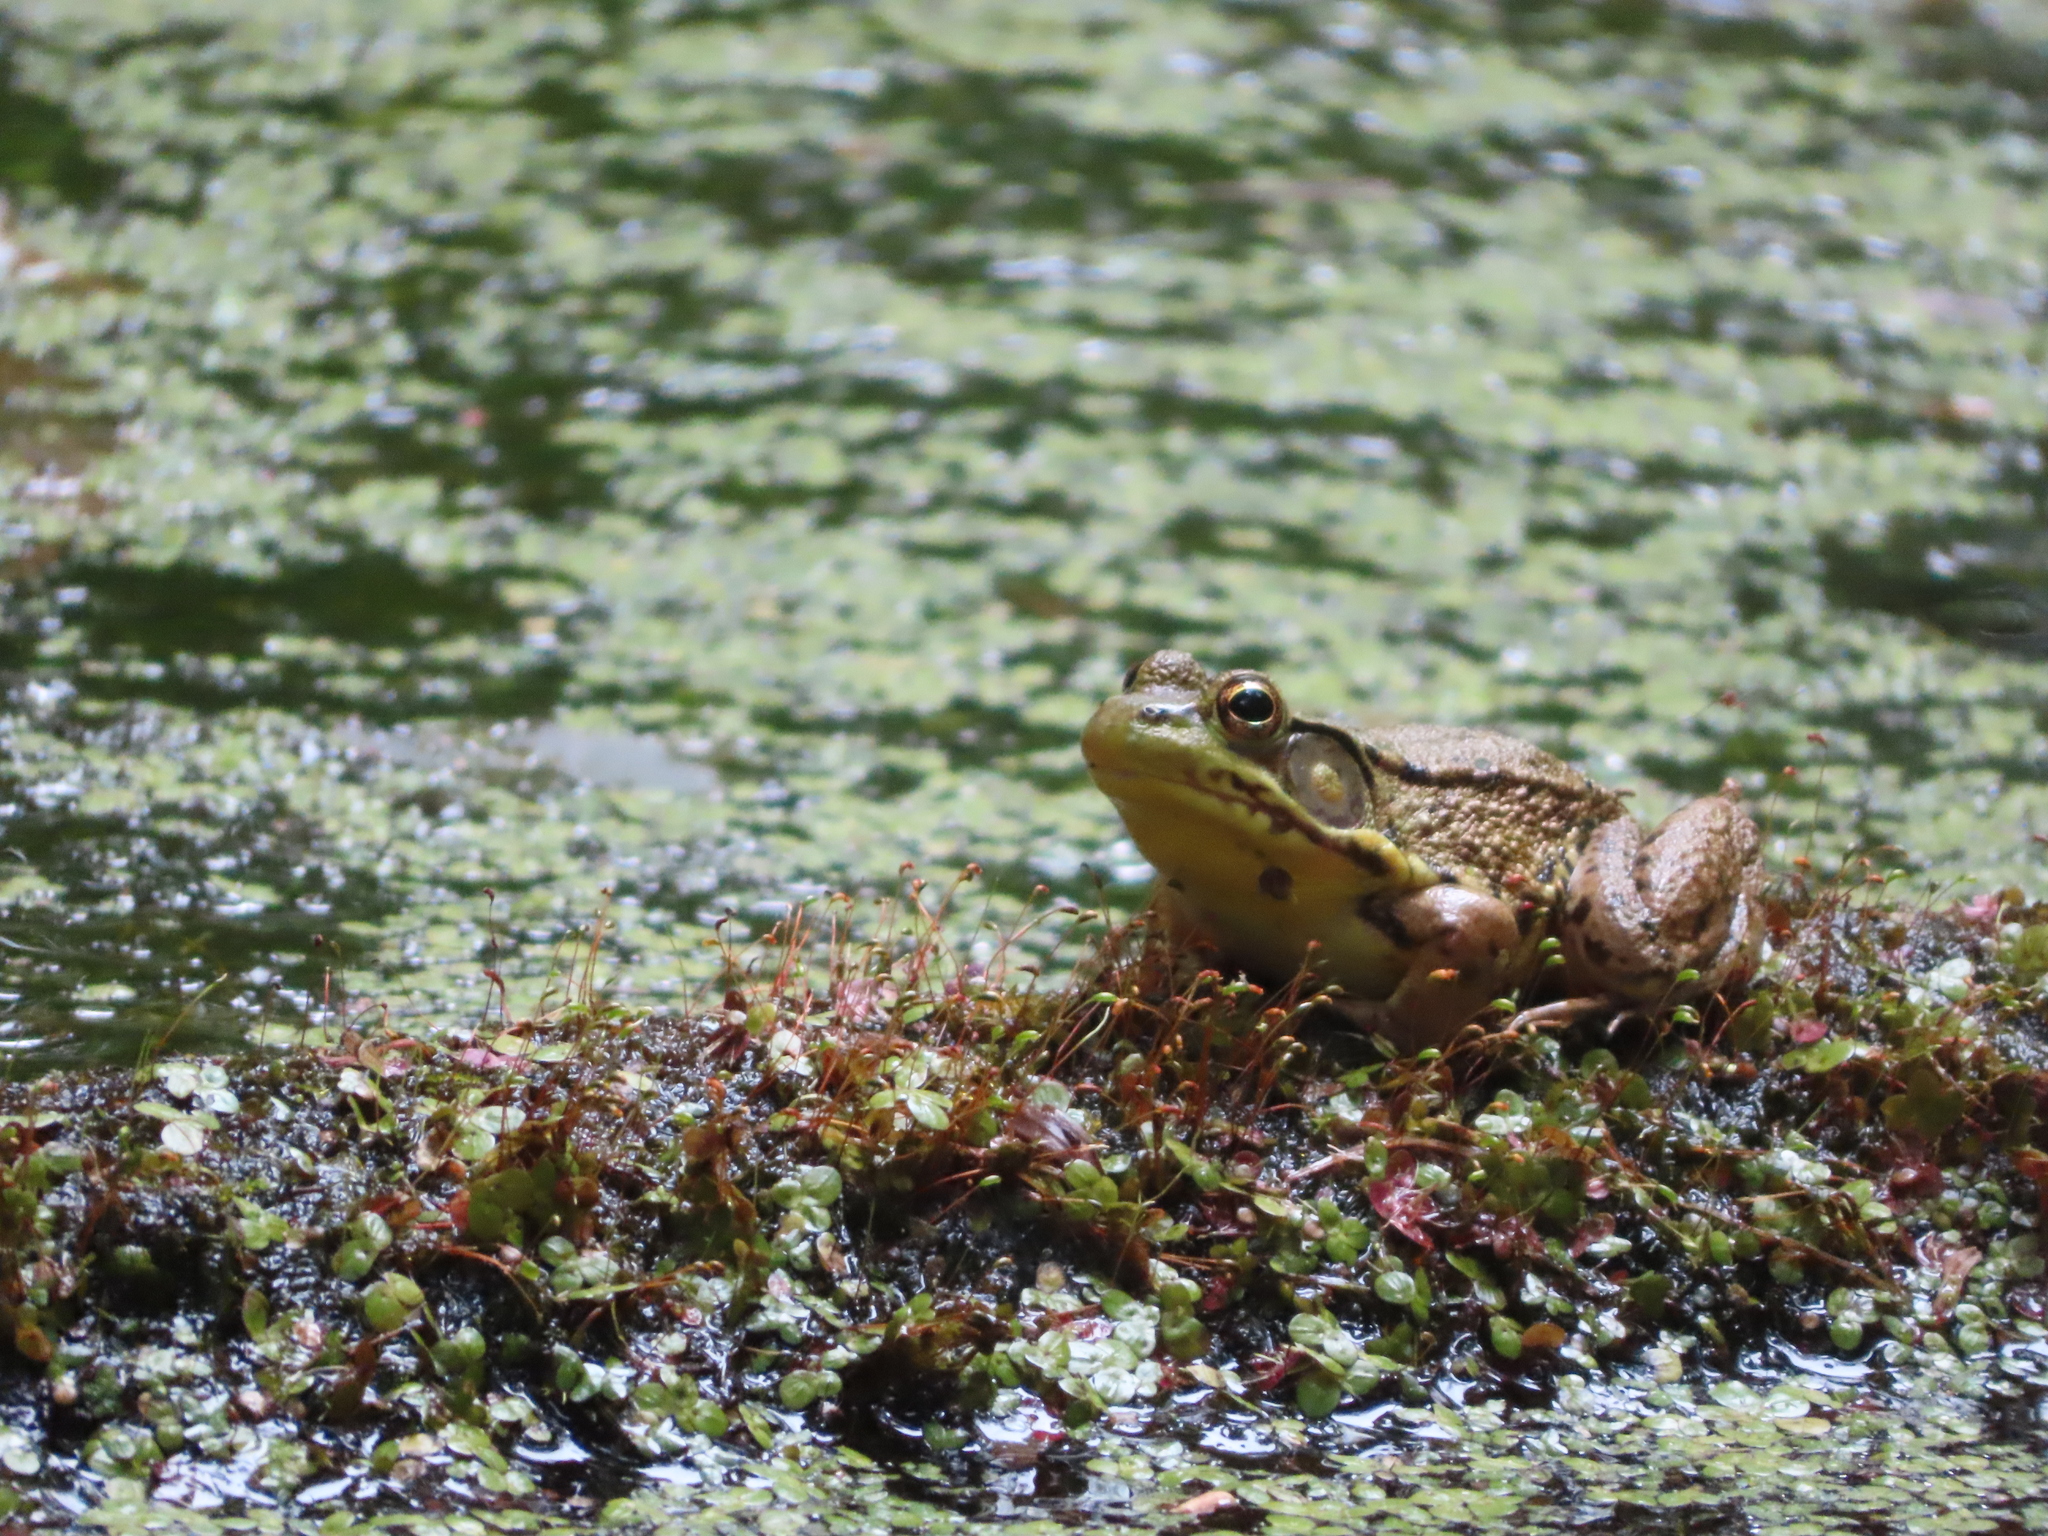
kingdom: Animalia
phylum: Chordata
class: Amphibia
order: Anura
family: Ranidae
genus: Lithobates
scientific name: Lithobates clamitans
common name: Green frog
